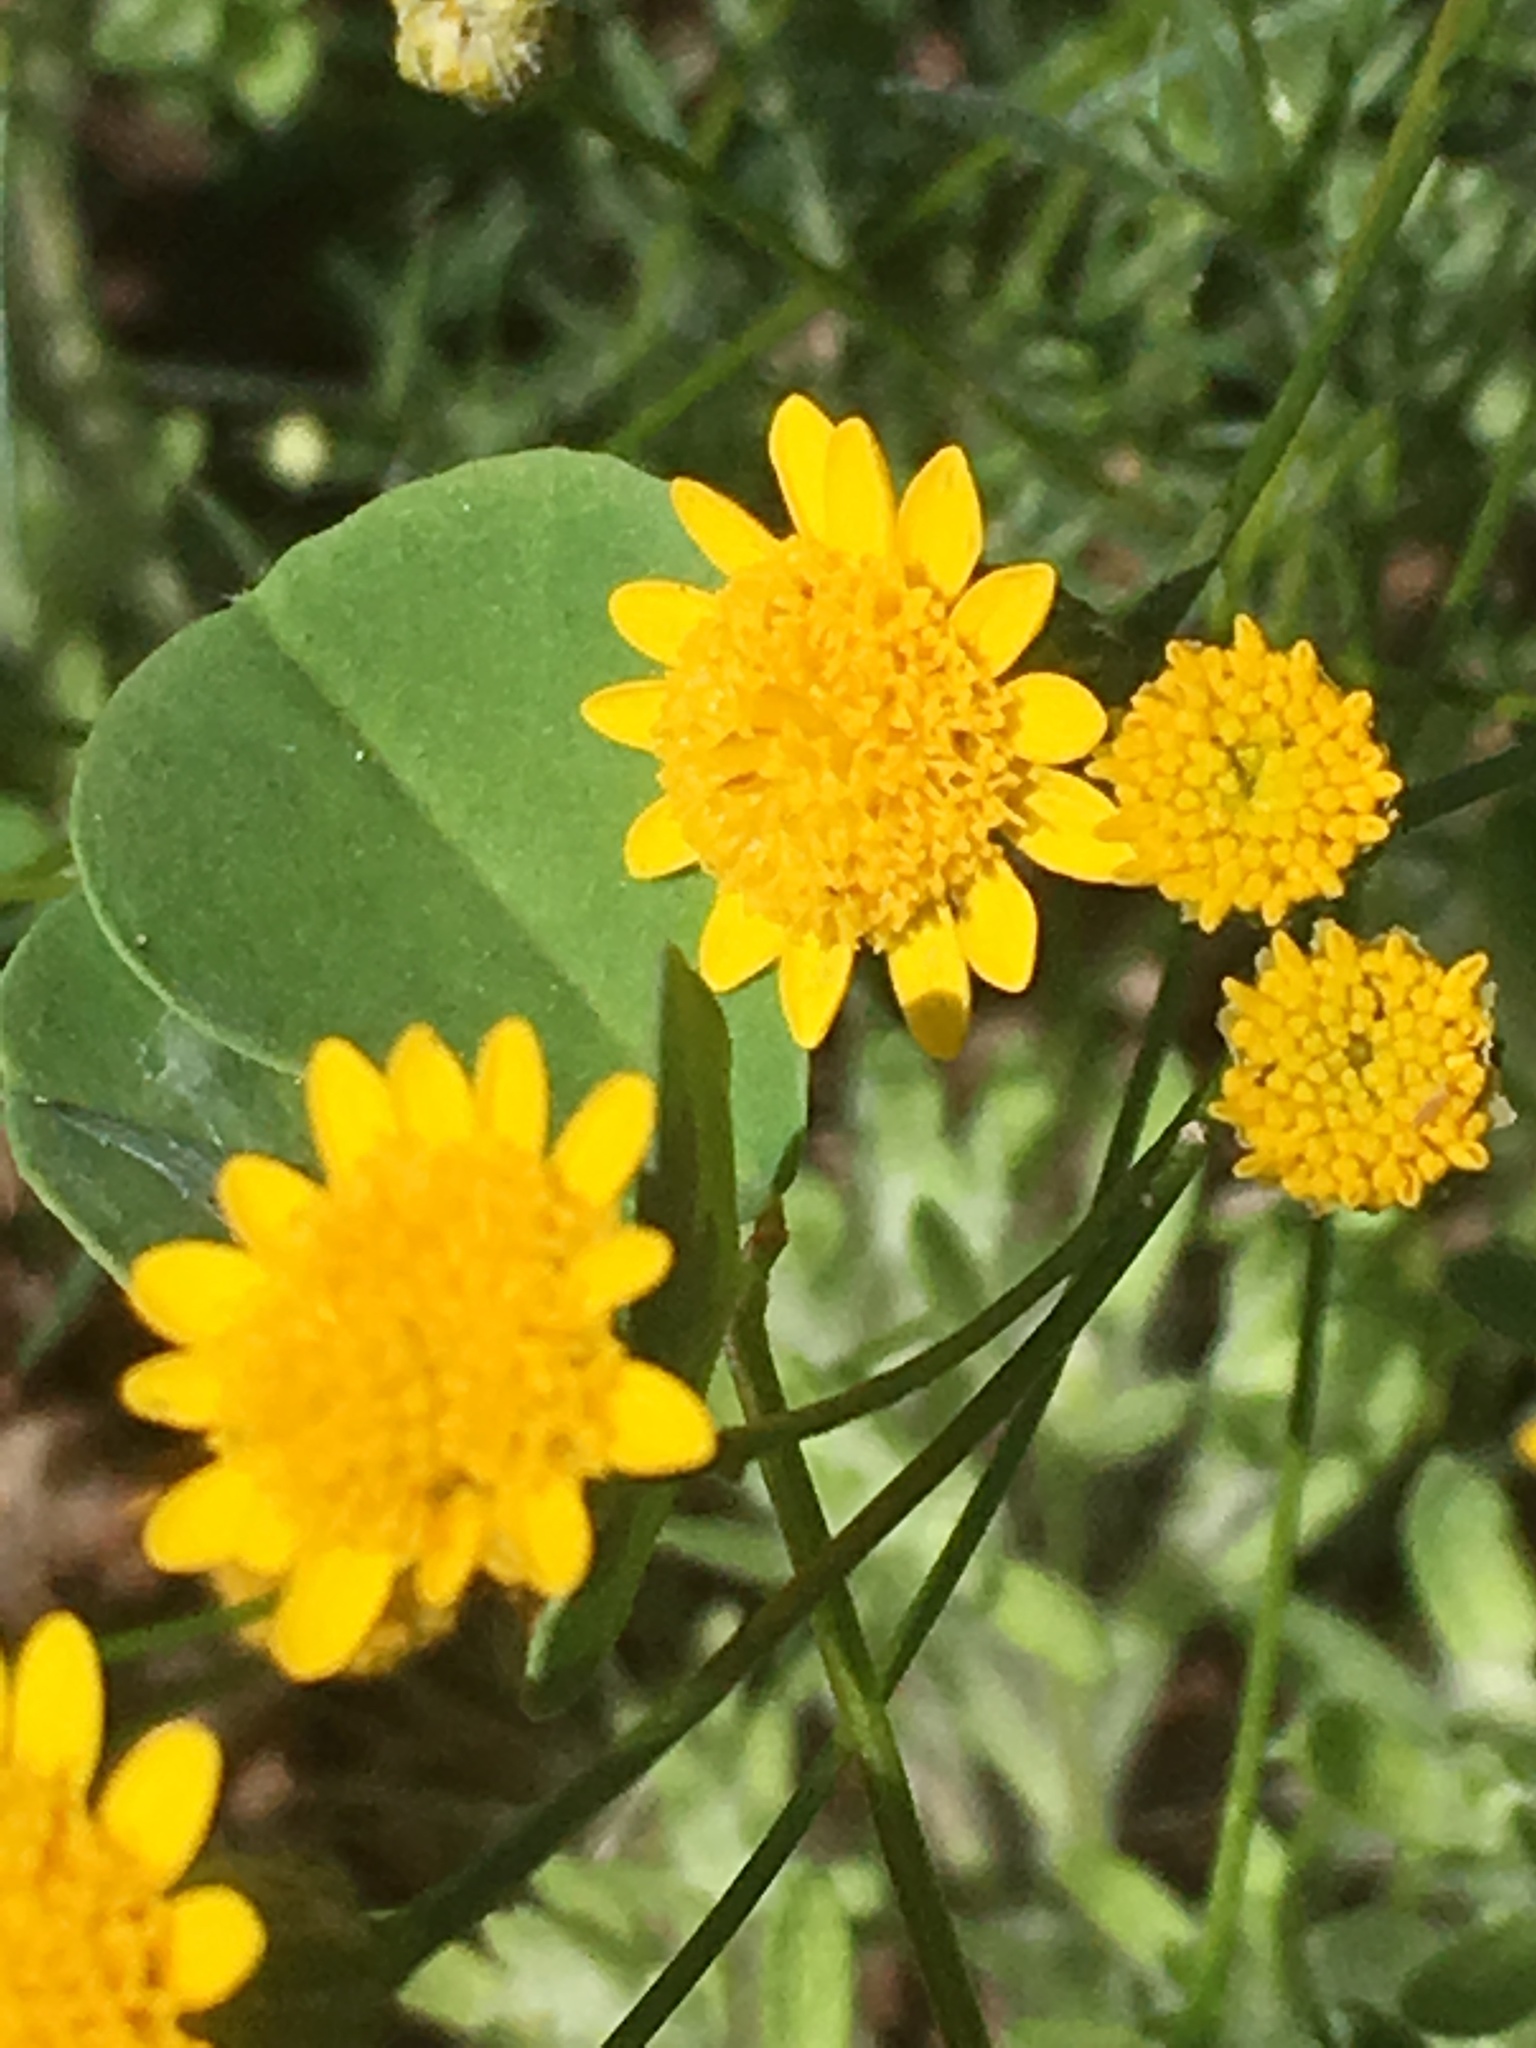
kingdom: Plantae
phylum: Tracheophyta
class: Magnoliopsida
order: Asterales
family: Asteraceae
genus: Thymophylla
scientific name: Thymophylla pentachaeta
